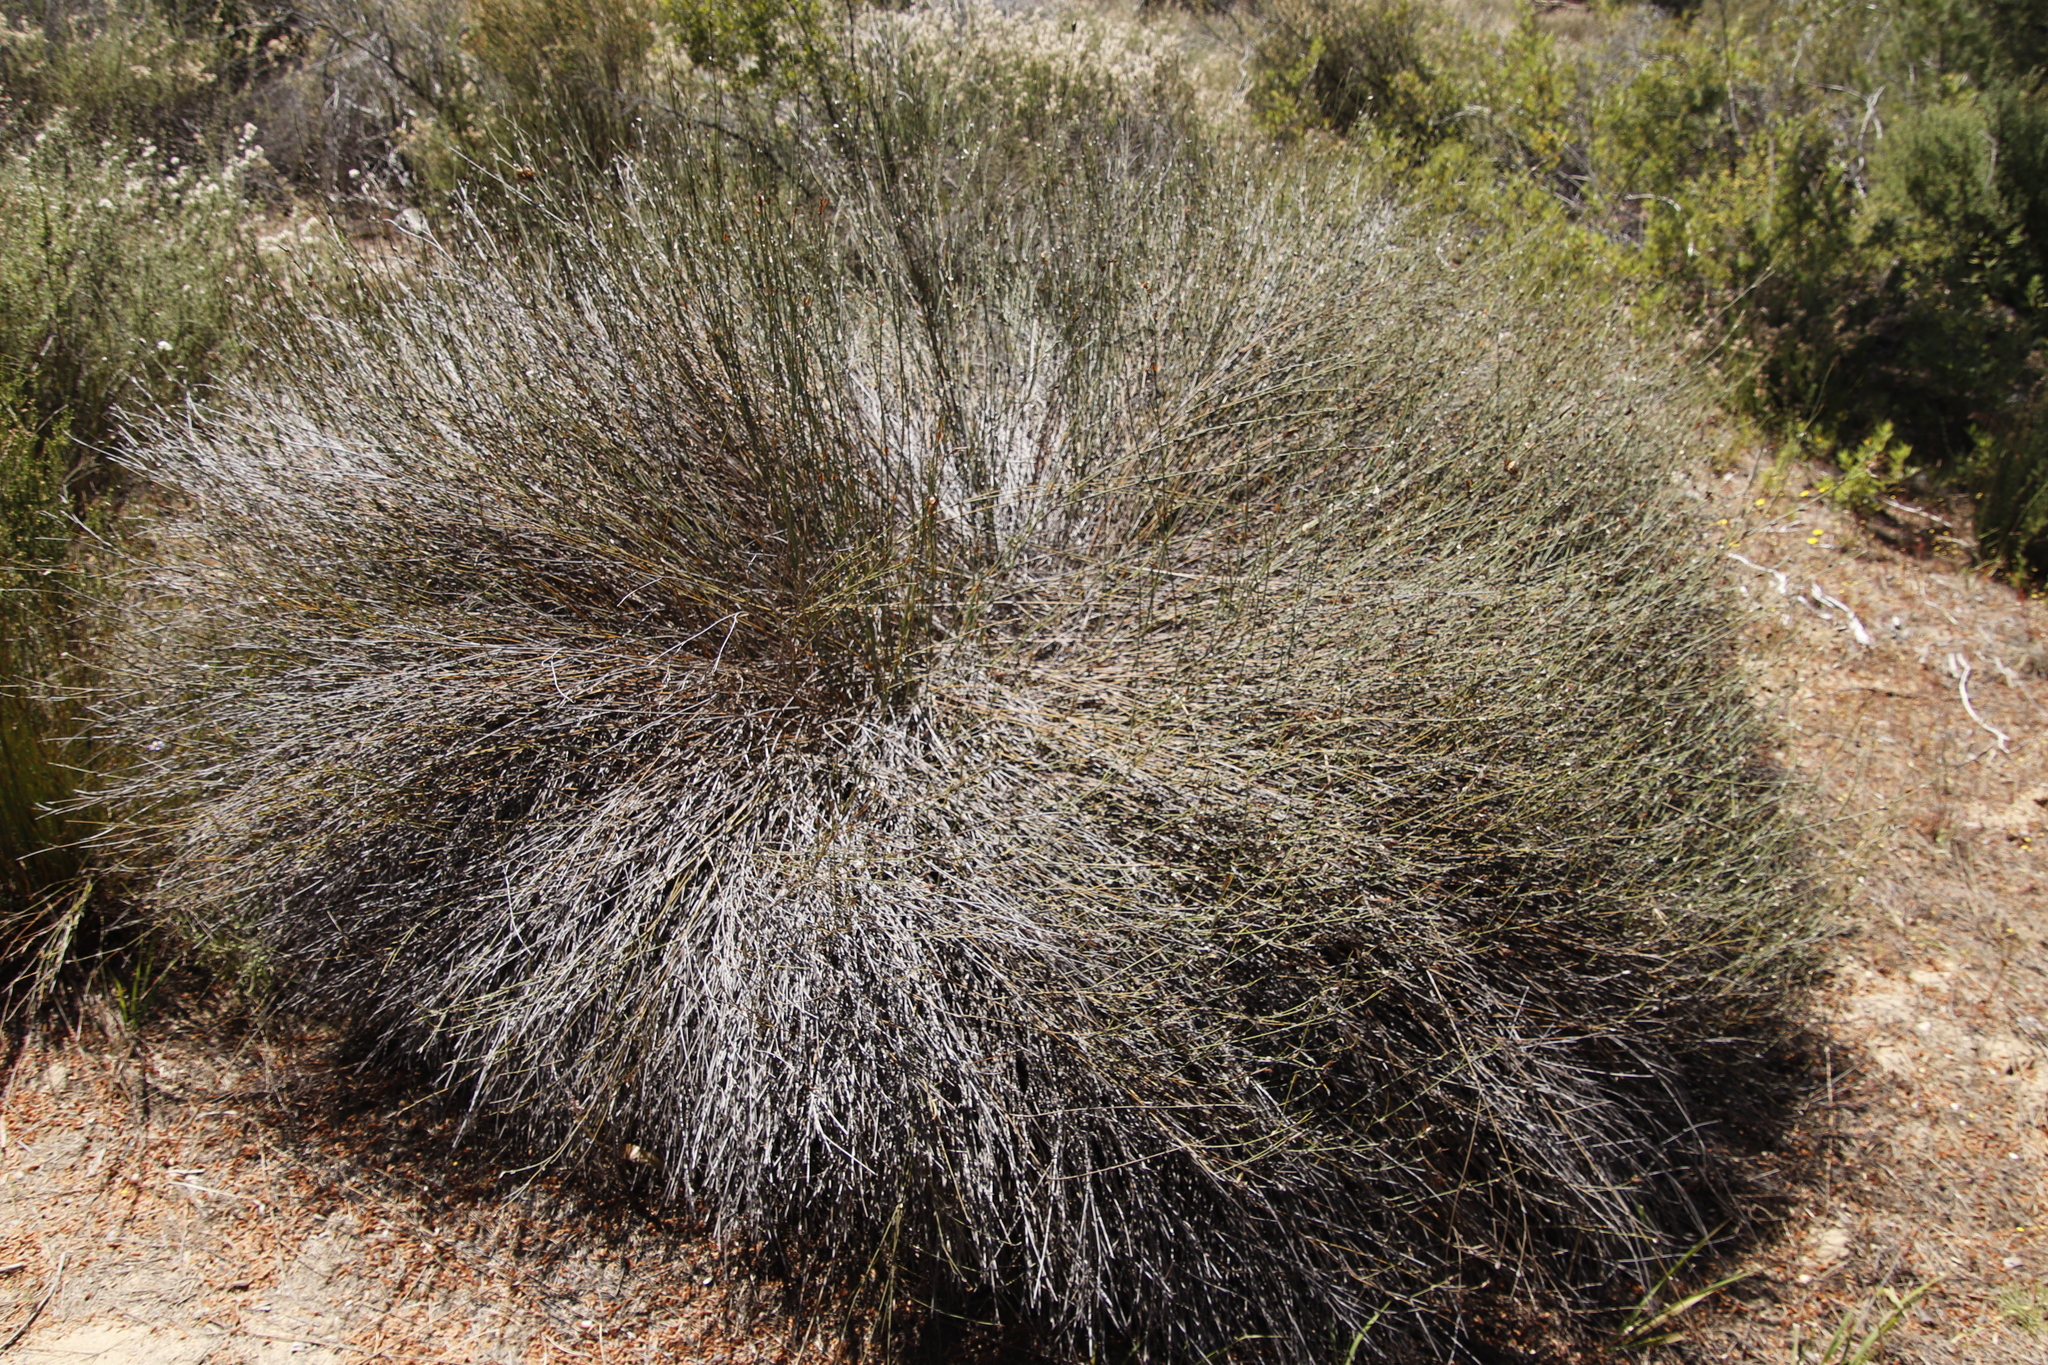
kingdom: Plantae
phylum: Tracheophyta
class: Liliopsida
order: Poales
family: Restionaceae
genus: Willdenowia
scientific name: Willdenowia incurvata
